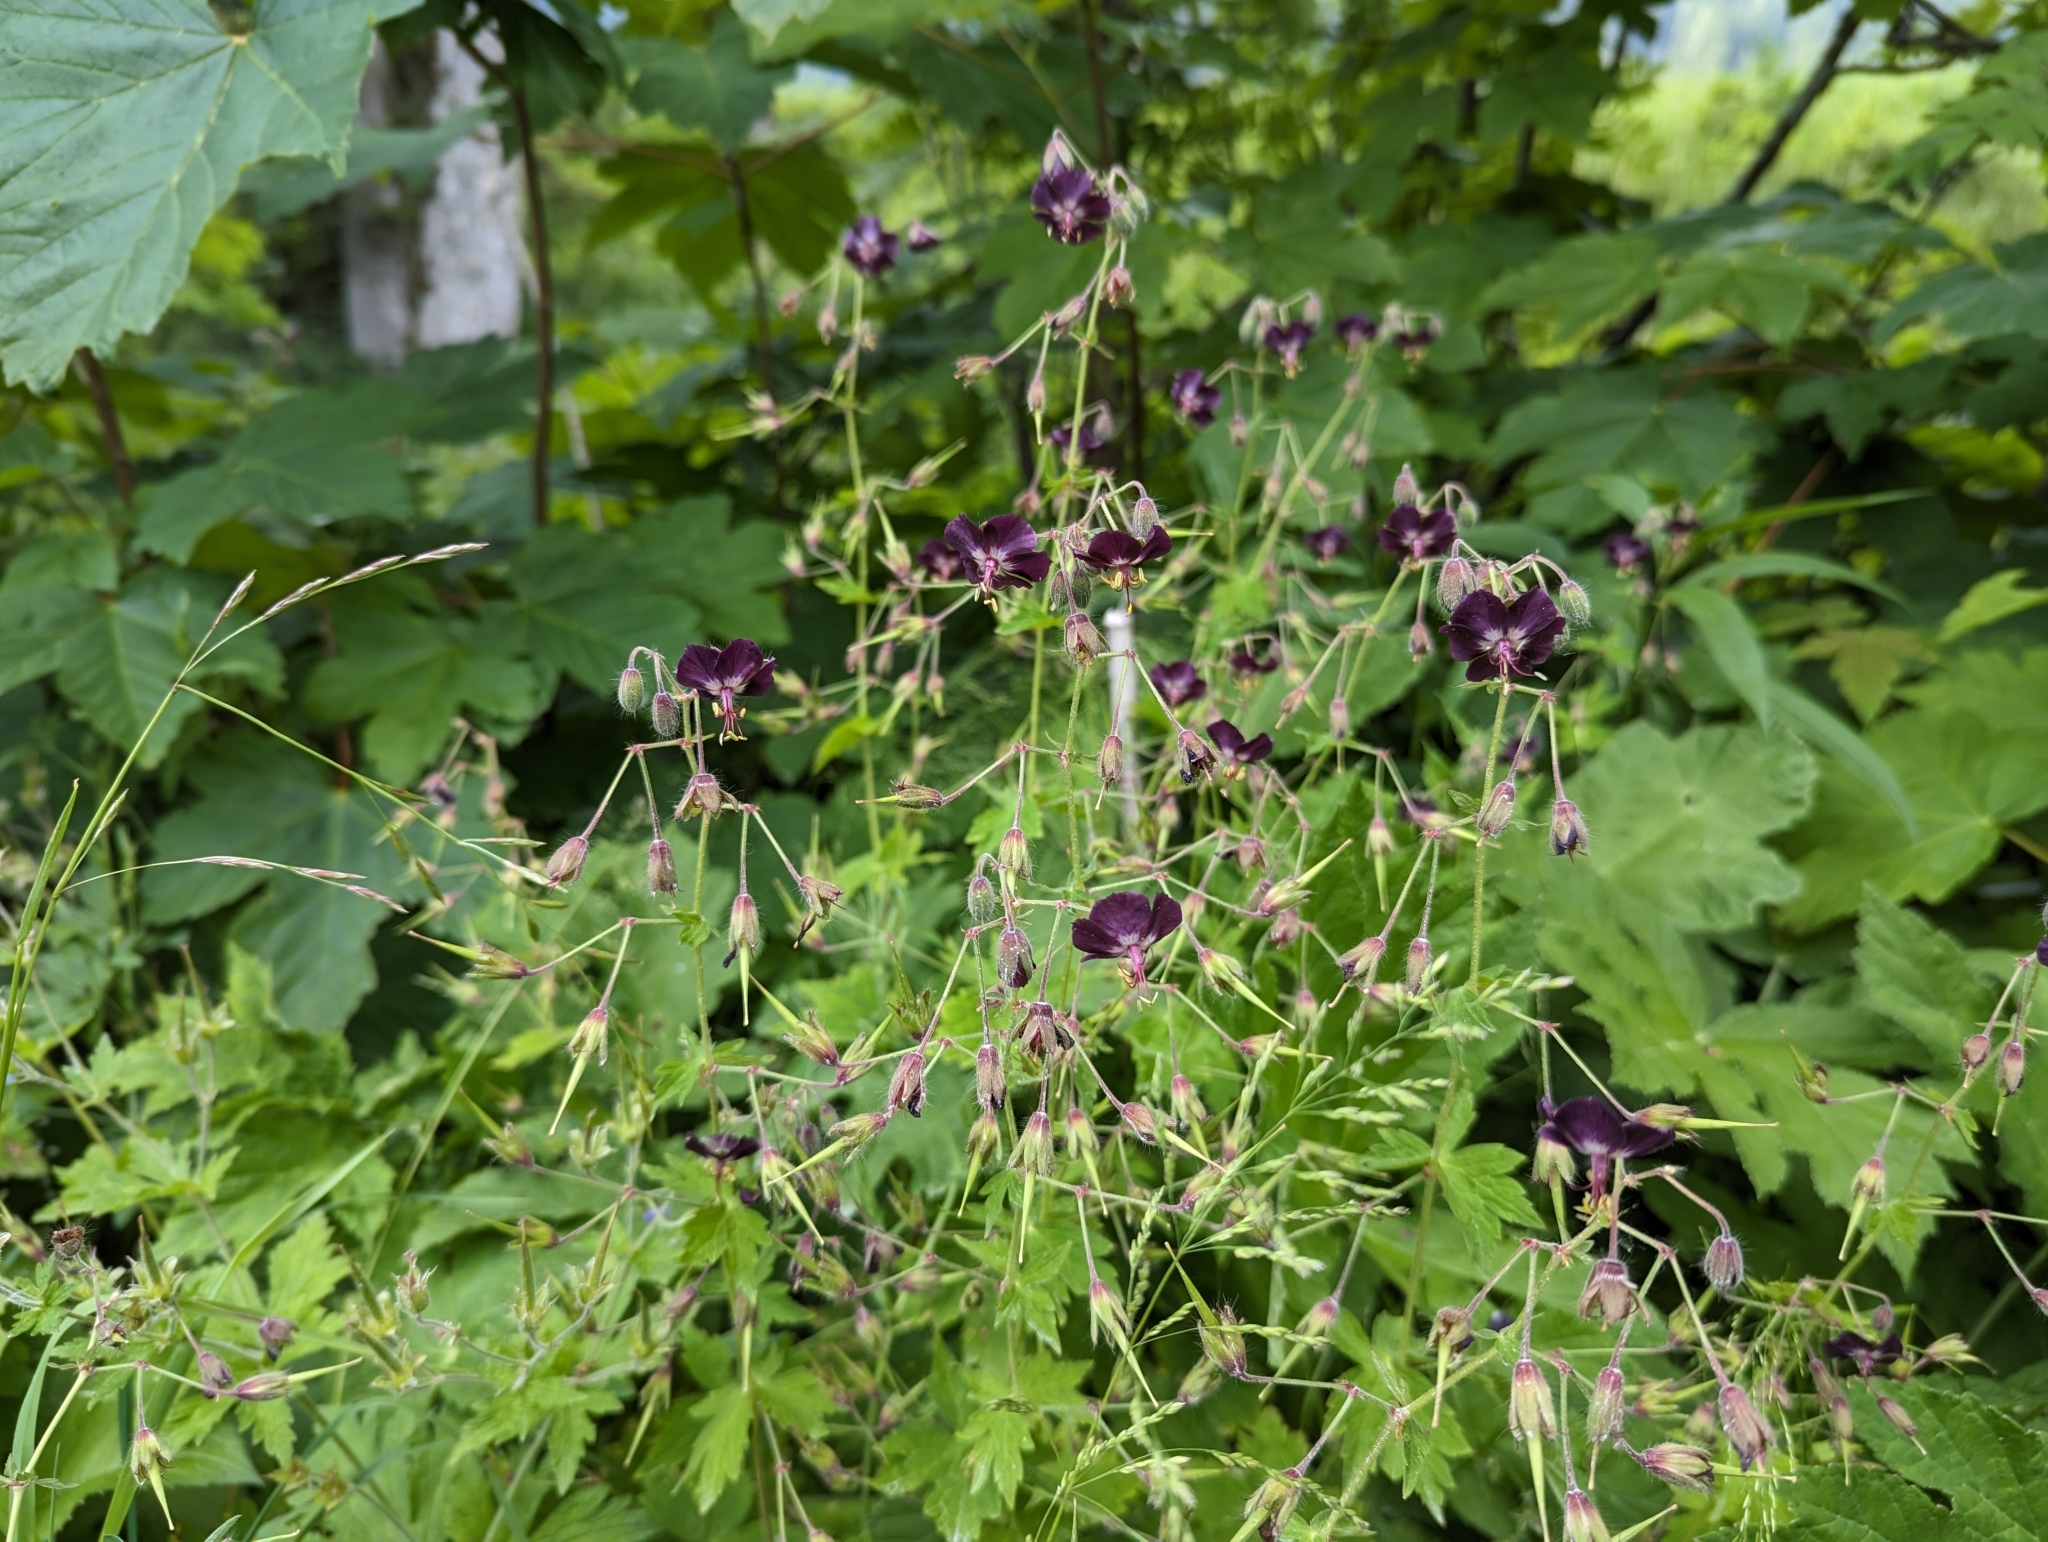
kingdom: Plantae
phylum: Tracheophyta
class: Magnoliopsida
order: Geraniales
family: Geraniaceae
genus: Geranium
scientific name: Geranium phaeum
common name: Dusky crane's-bill
